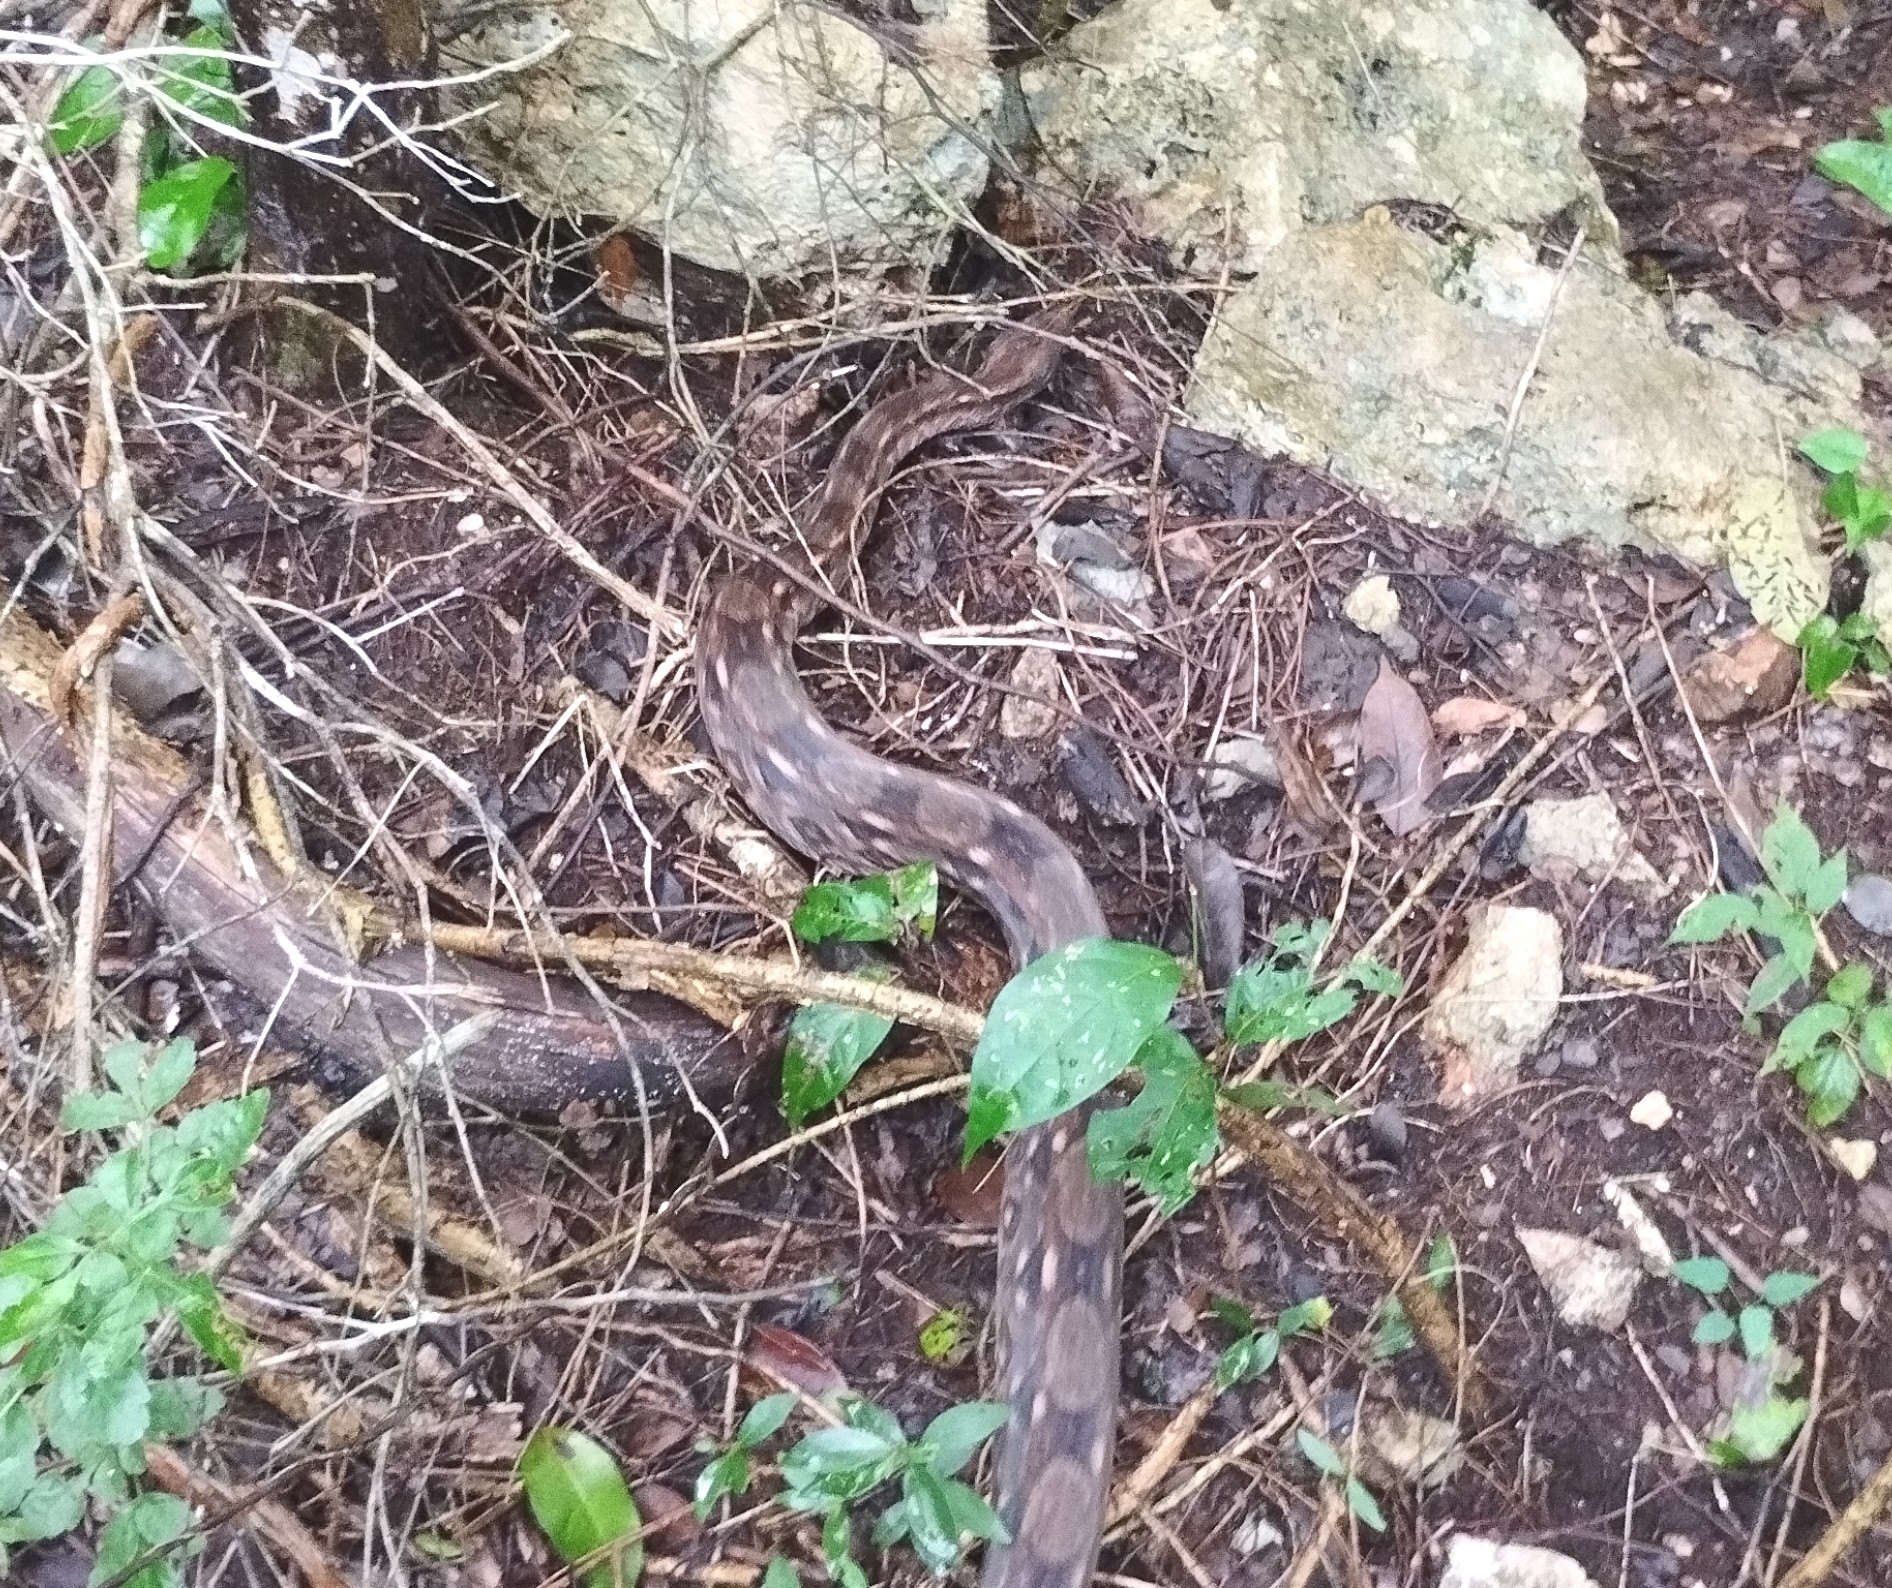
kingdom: Animalia
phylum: Chordata
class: Squamata
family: Boidae
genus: Boa
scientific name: Boa imperator
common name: Central american boa
